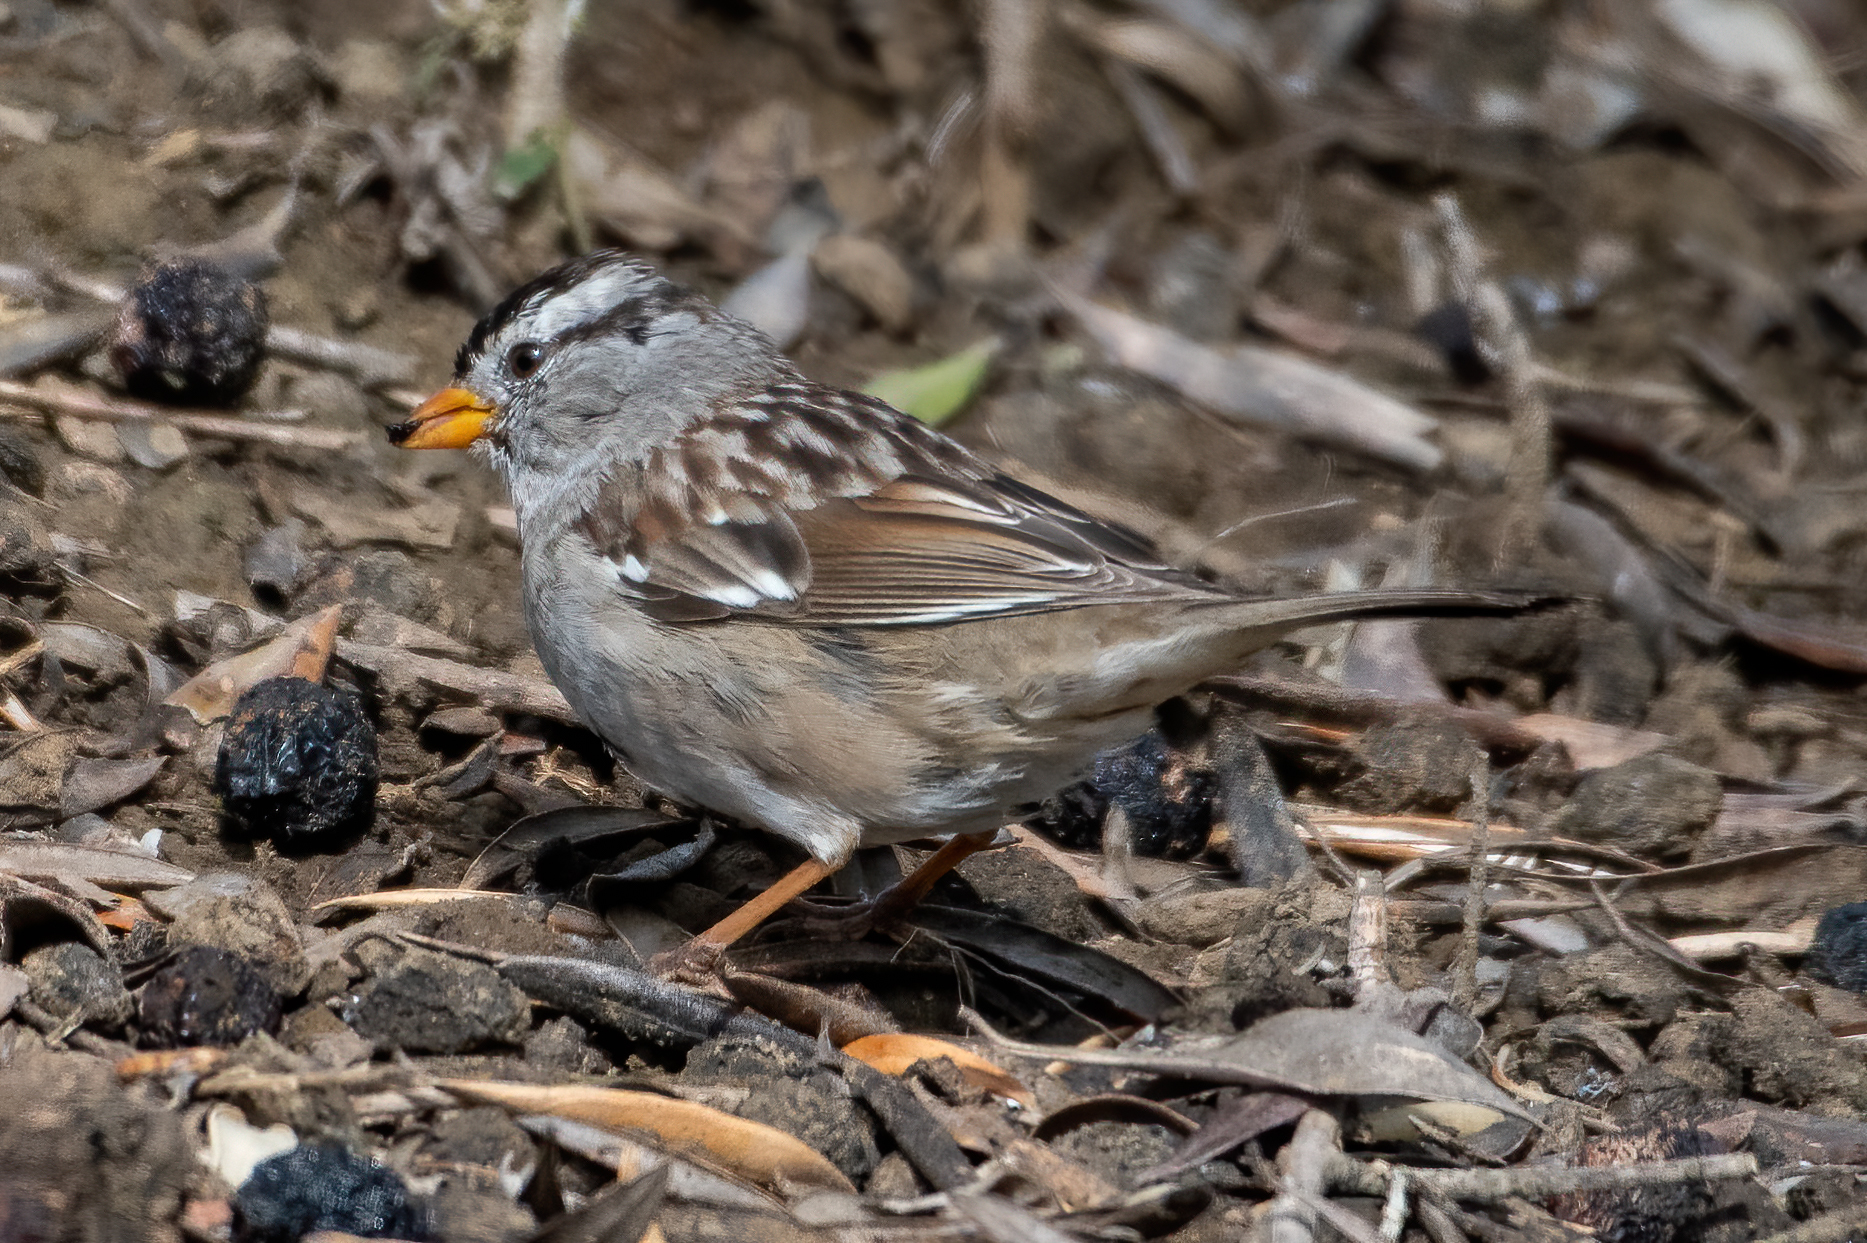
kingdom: Animalia
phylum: Chordata
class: Aves
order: Passeriformes
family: Passerellidae
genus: Zonotrichia
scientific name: Zonotrichia leucophrys
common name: White-crowned sparrow
